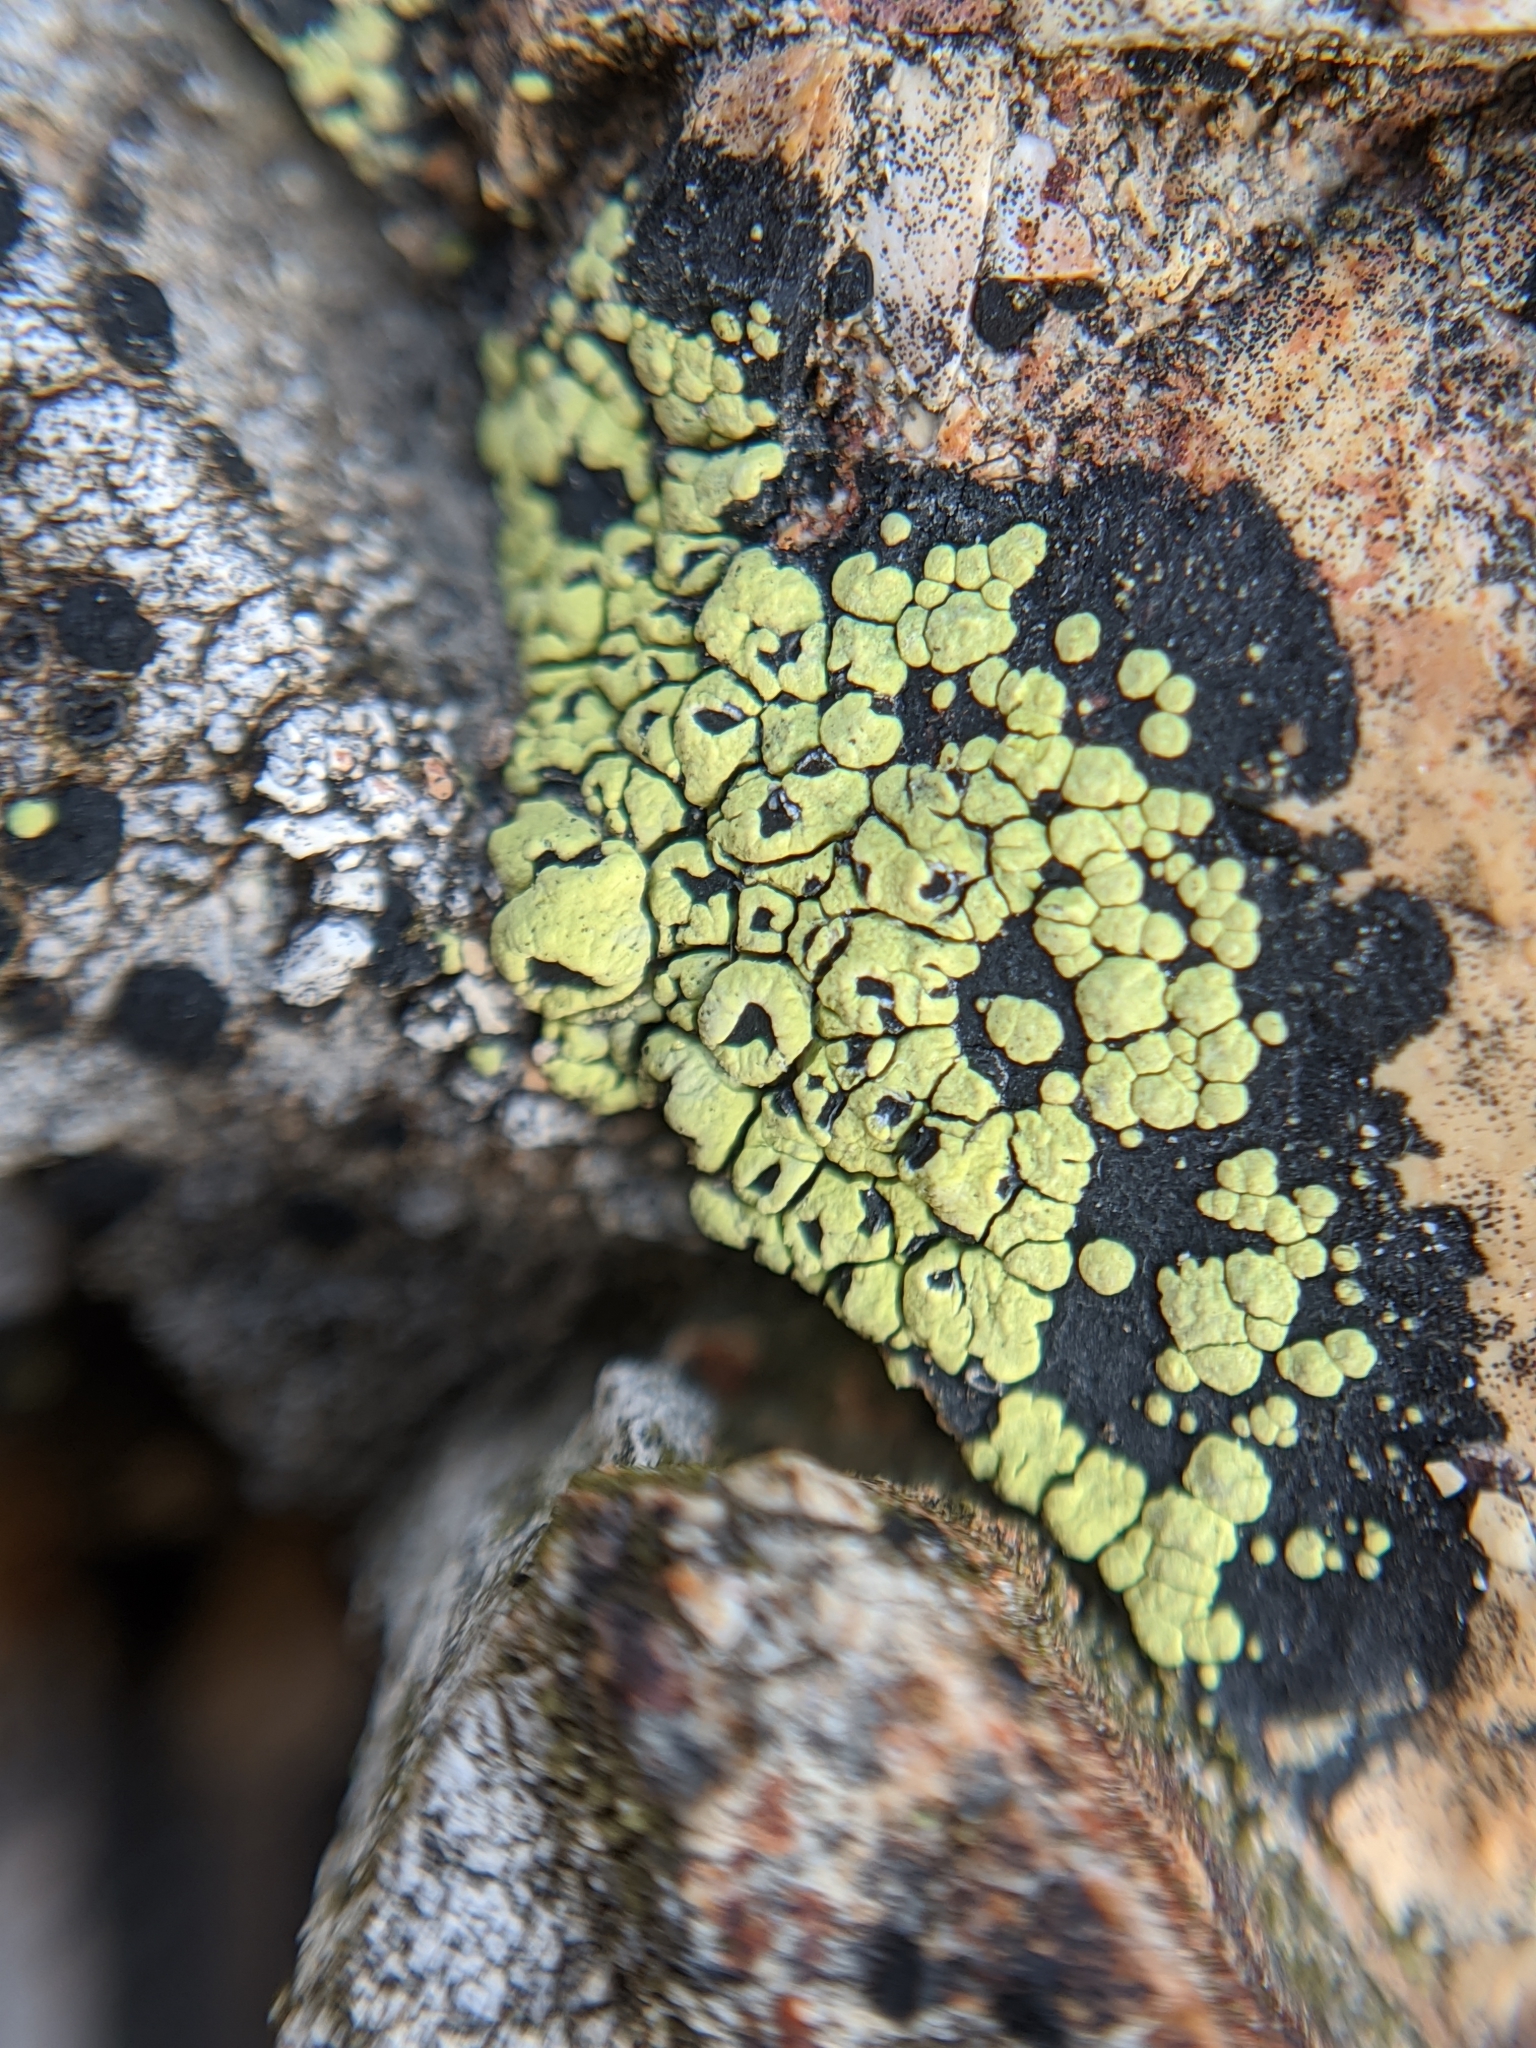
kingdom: Fungi
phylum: Ascomycota
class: Lecanoromycetes
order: Rhizocarpales
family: Rhizocarpaceae
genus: Rhizocarpon
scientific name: Rhizocarpon lecanorinum
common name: Crescent map lichen
